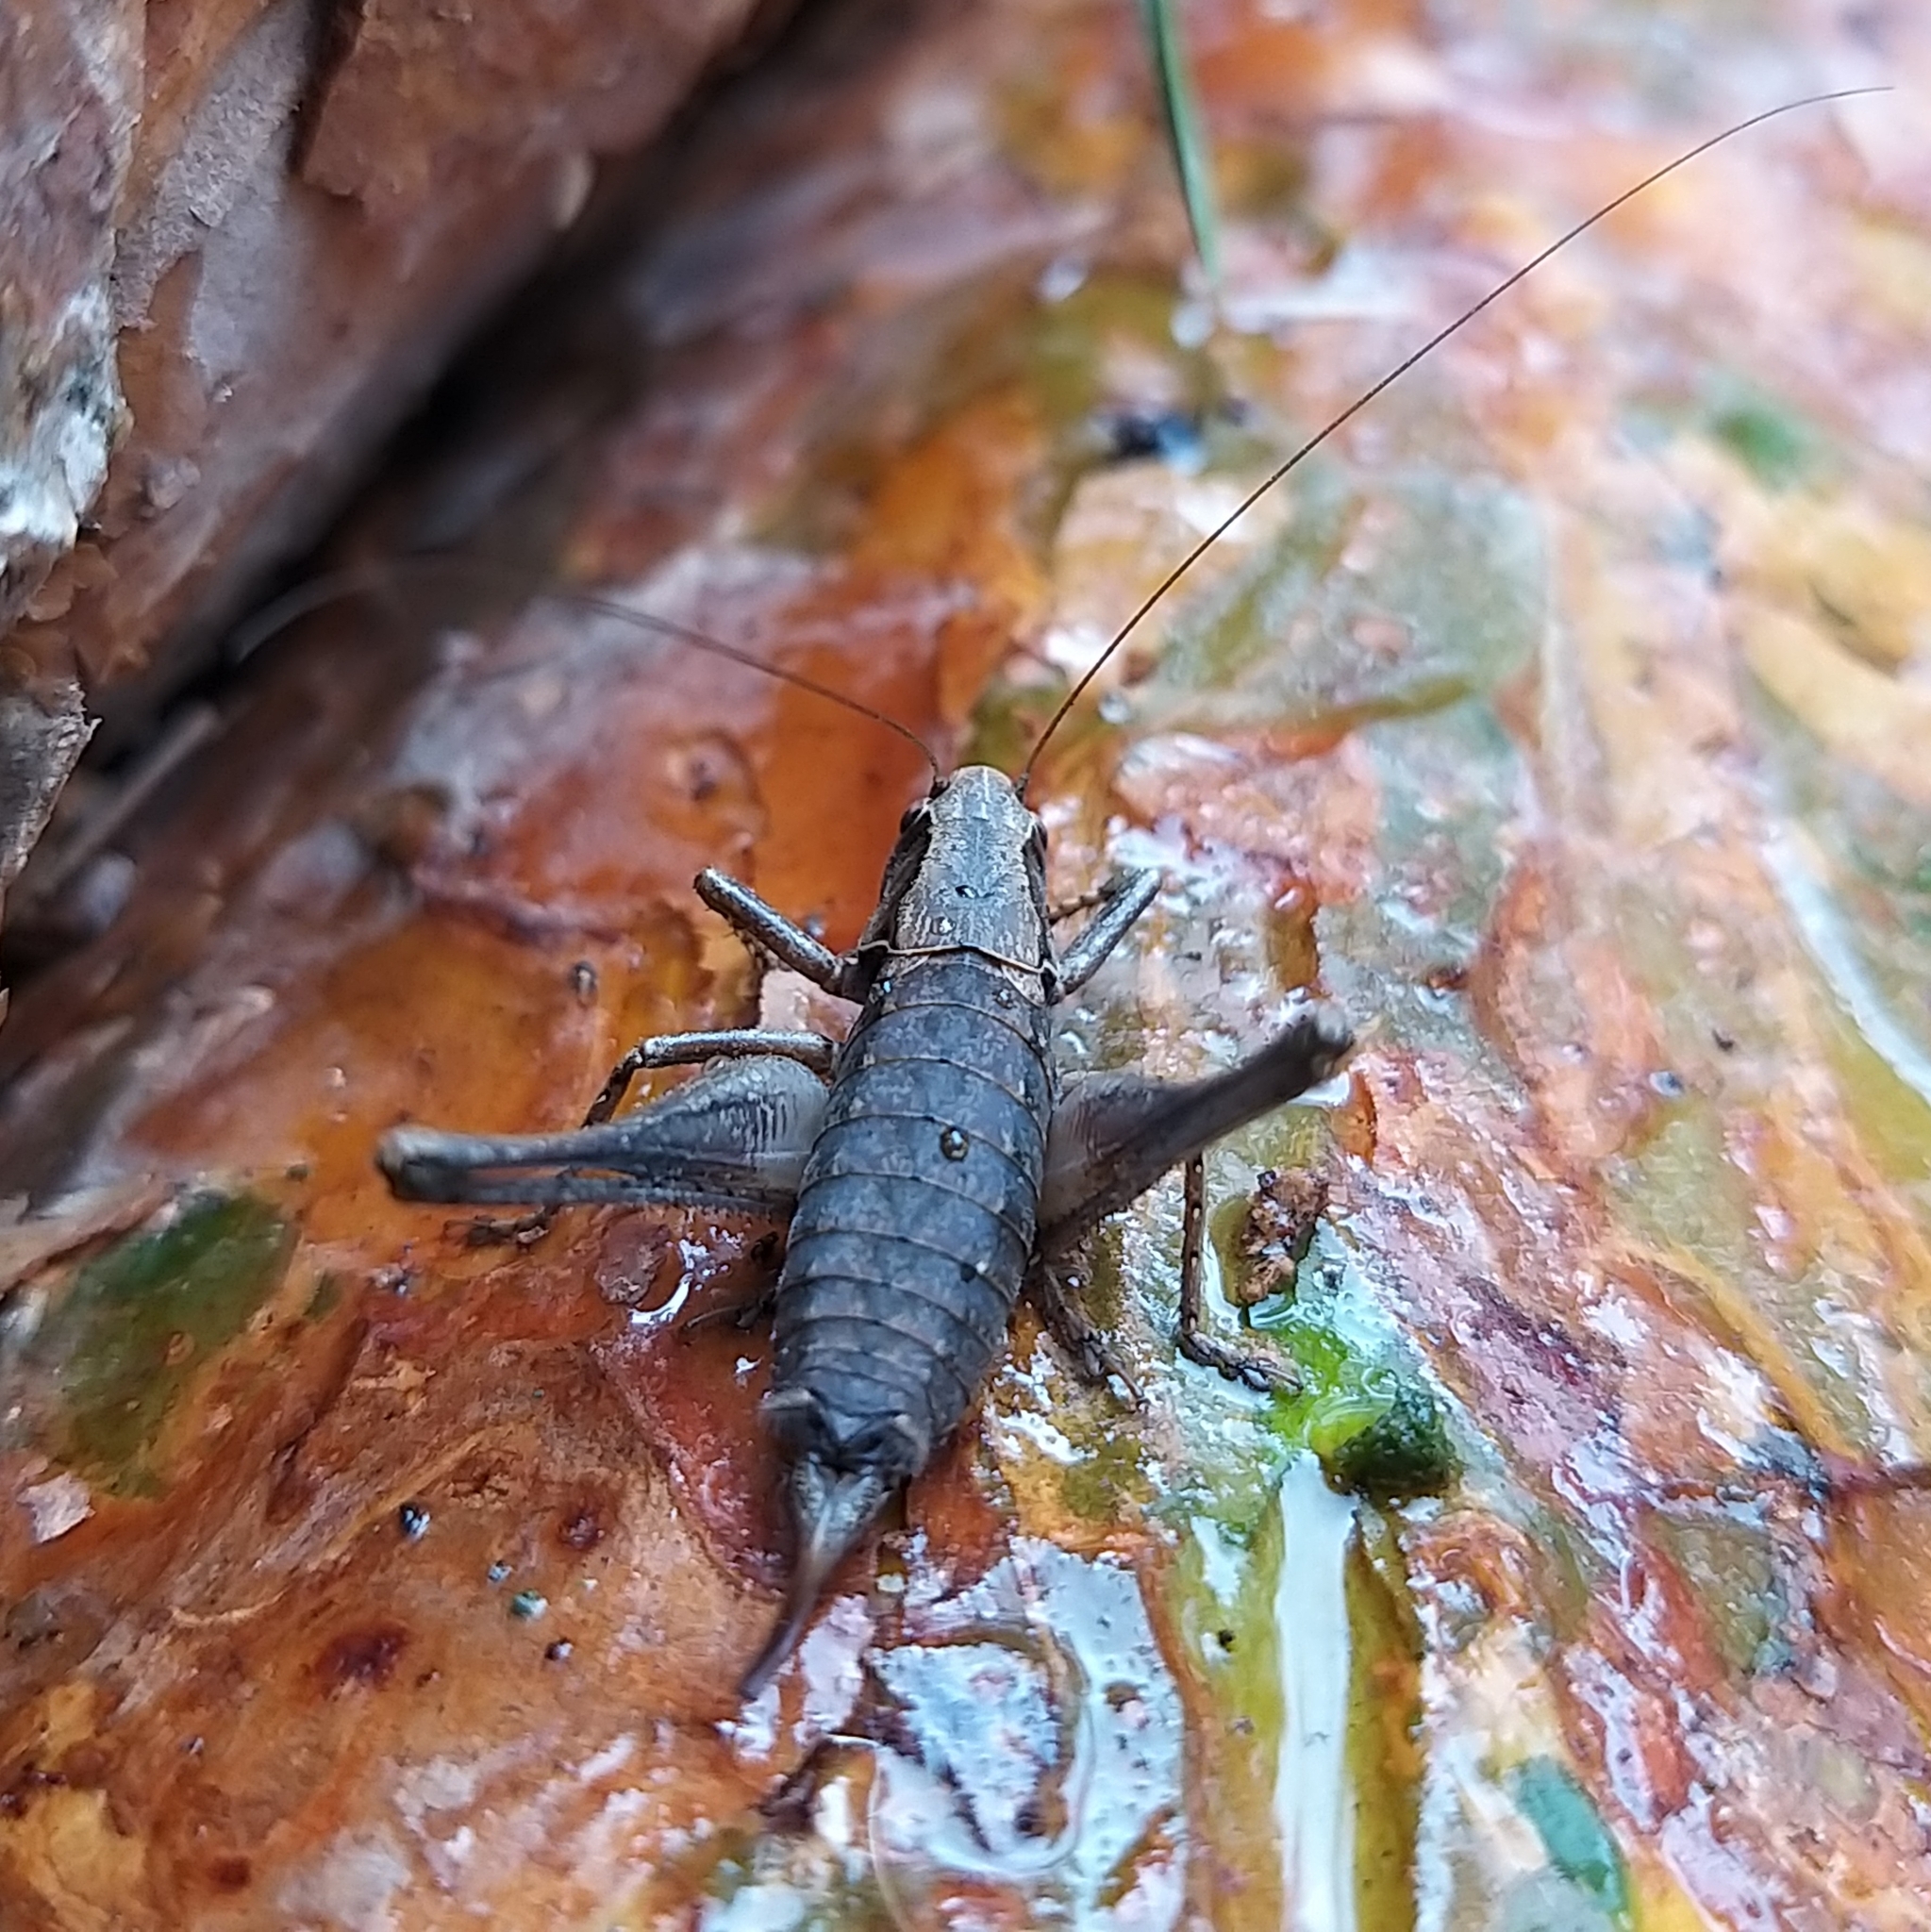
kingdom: Animalia
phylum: Arthropoda
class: Insecta
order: Orthoptera
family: Tettigoniidae
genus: Pholidoptera
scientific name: Pholidoptera griseoaptera
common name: Dark bush-cricket
